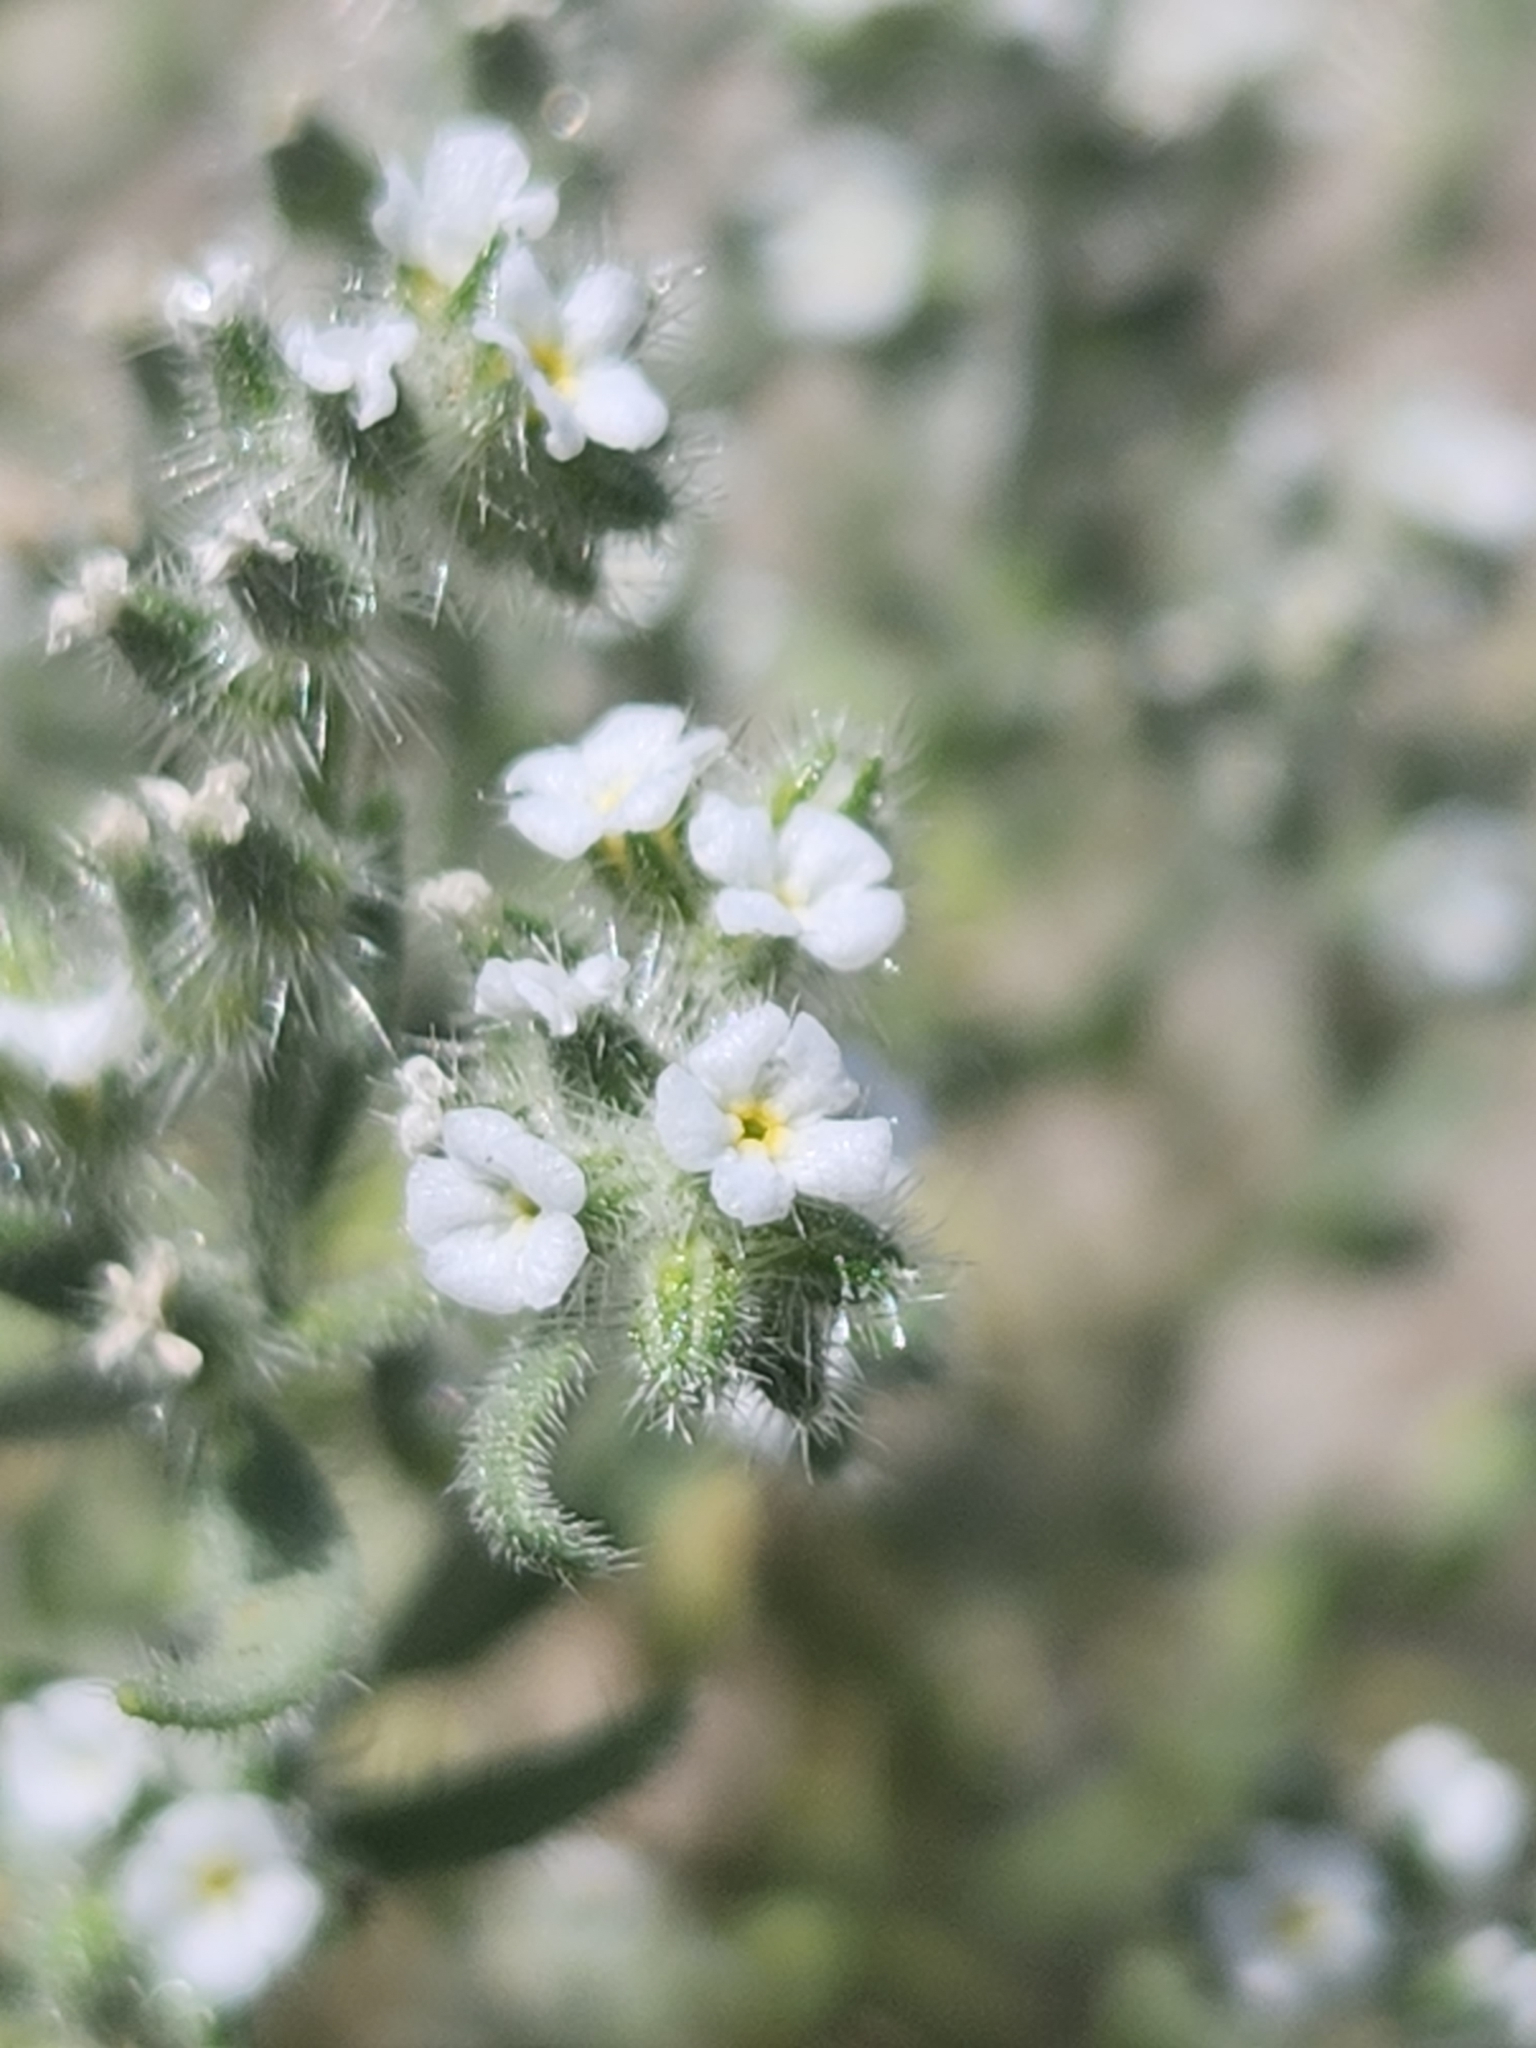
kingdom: Plantae
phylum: Tracheophyta
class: Magnoliopsida
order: Boraginales
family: Boraginaceae
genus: Johnstonella
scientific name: Johnstonella angustifolia
